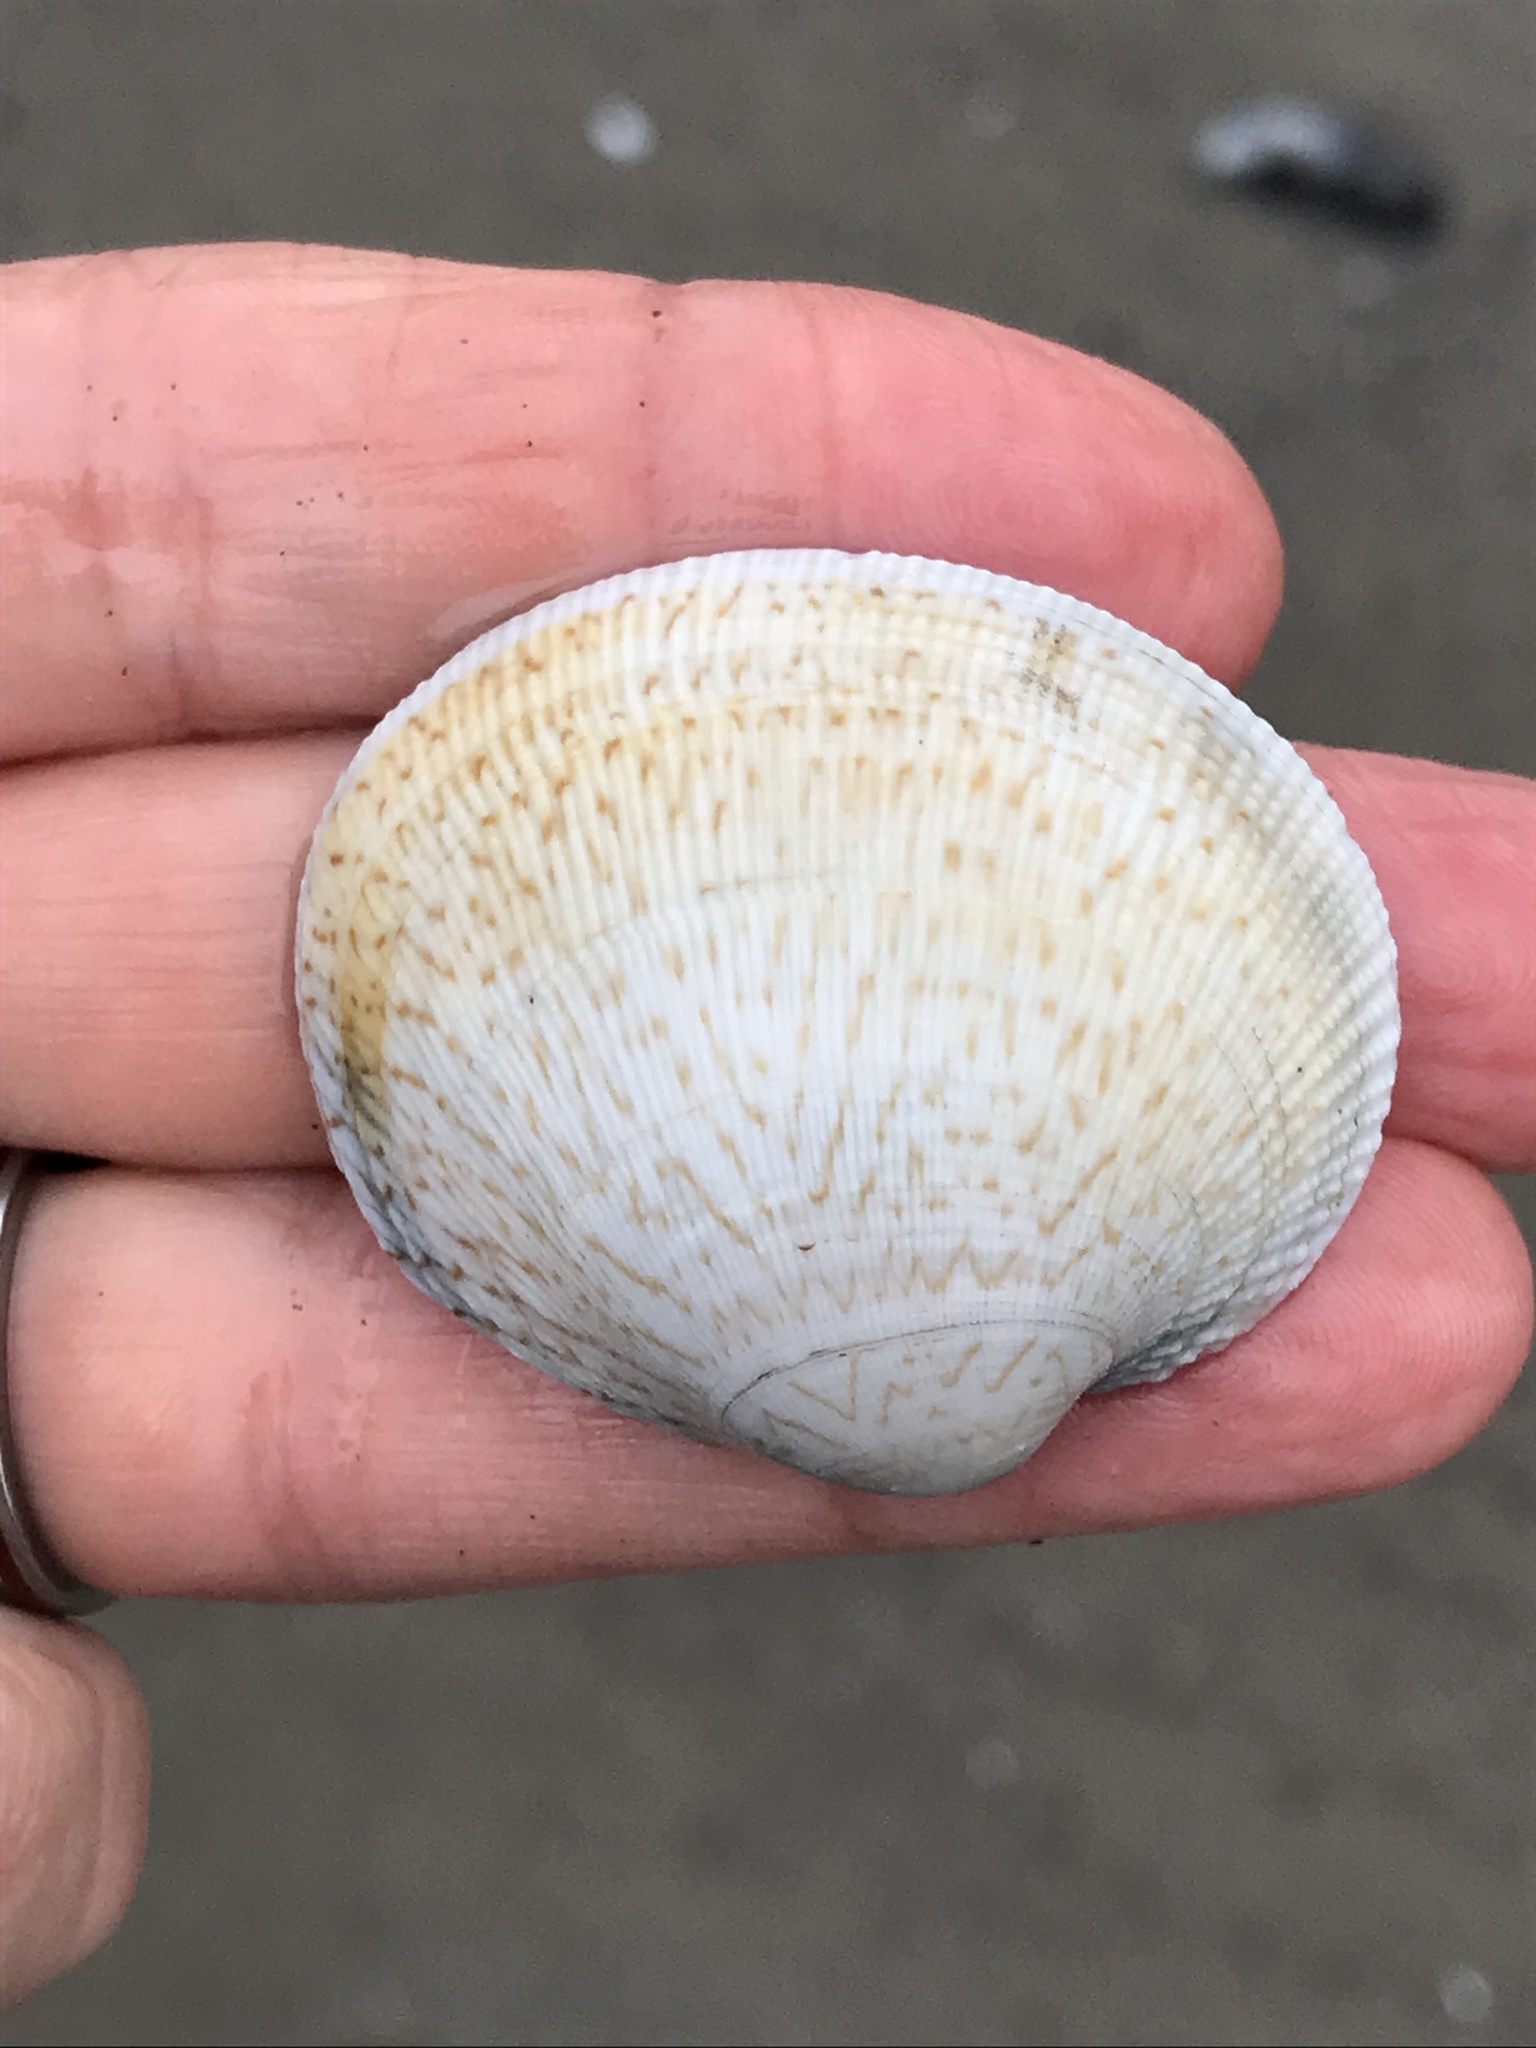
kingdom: Animalia
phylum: Mollusca
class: Bivalvia
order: Venerida
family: Veneridae
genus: Leukoma
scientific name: Leukoma staminea
